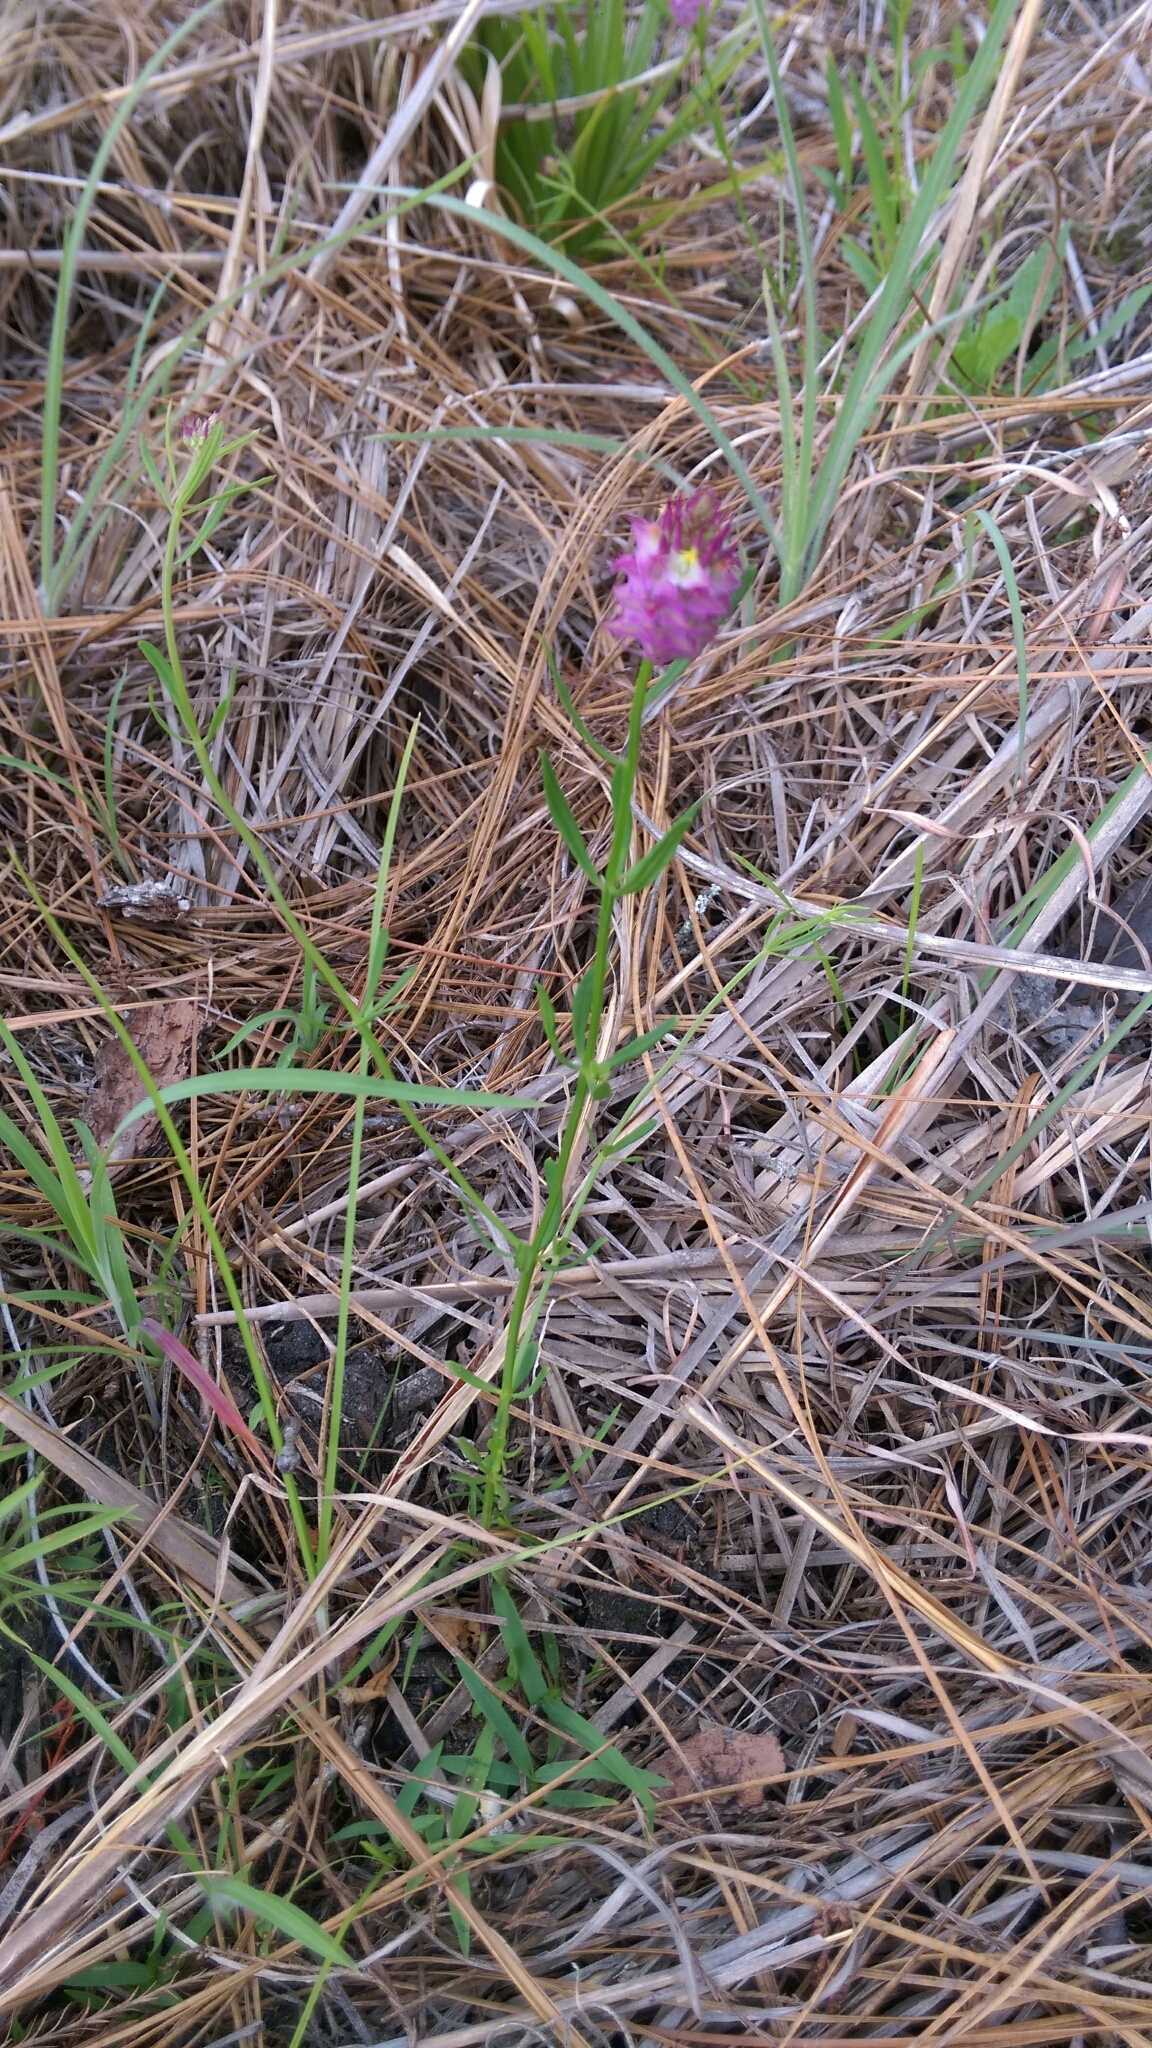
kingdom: Plantae
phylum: Tracheophyta
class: Magnoliopsida
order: Fabales
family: Polygalaceae
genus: Polygala
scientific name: Polygala cruciata
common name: Drumheads
